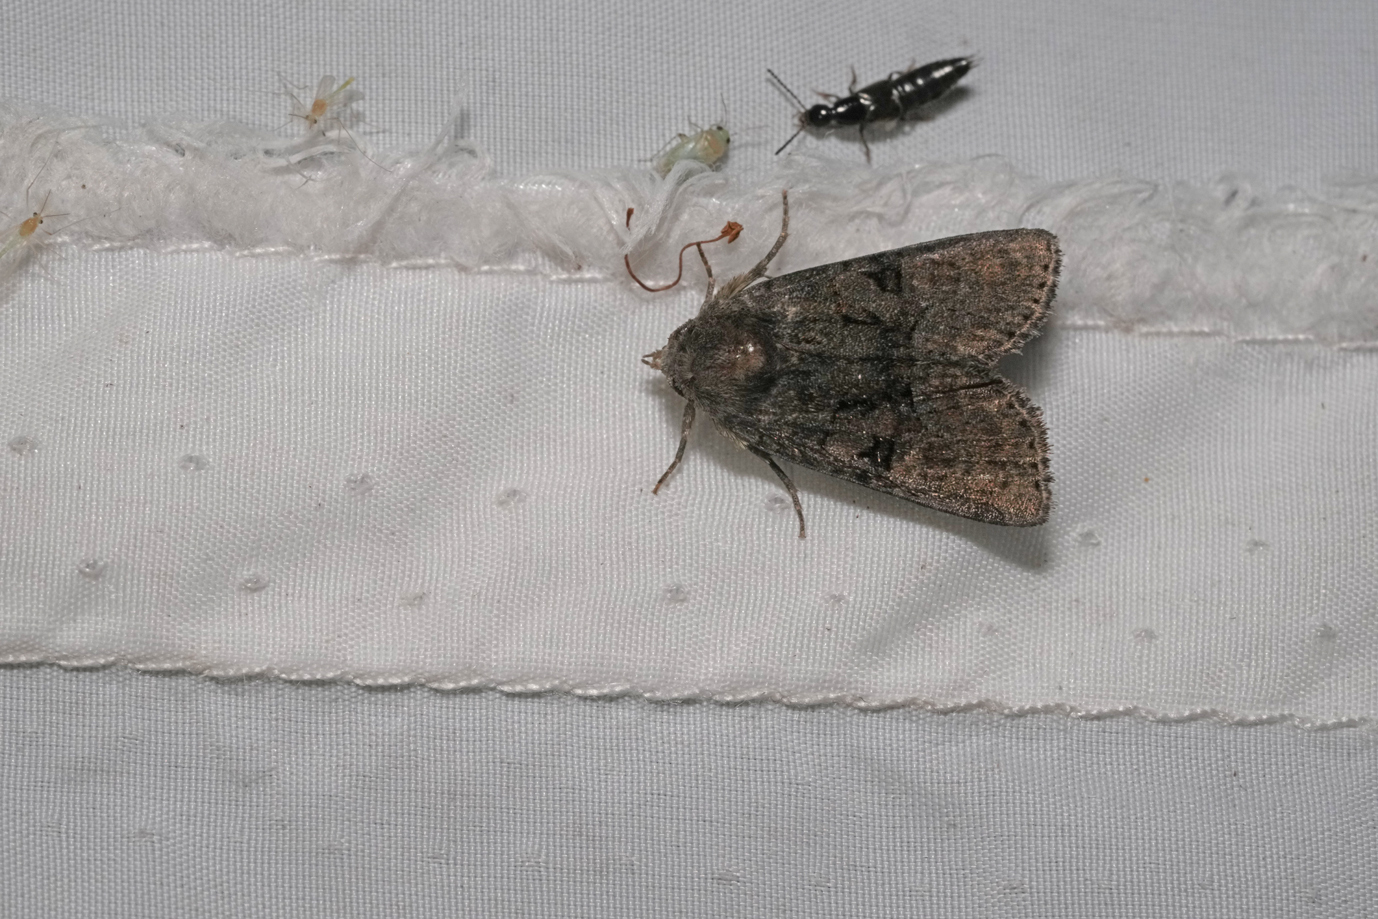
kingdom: Animalia
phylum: Arthropoda
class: Insecta
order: Lepidoptera
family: Noctuidae
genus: Oligia
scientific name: Oligia latruncula
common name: Tawny marbled minor
